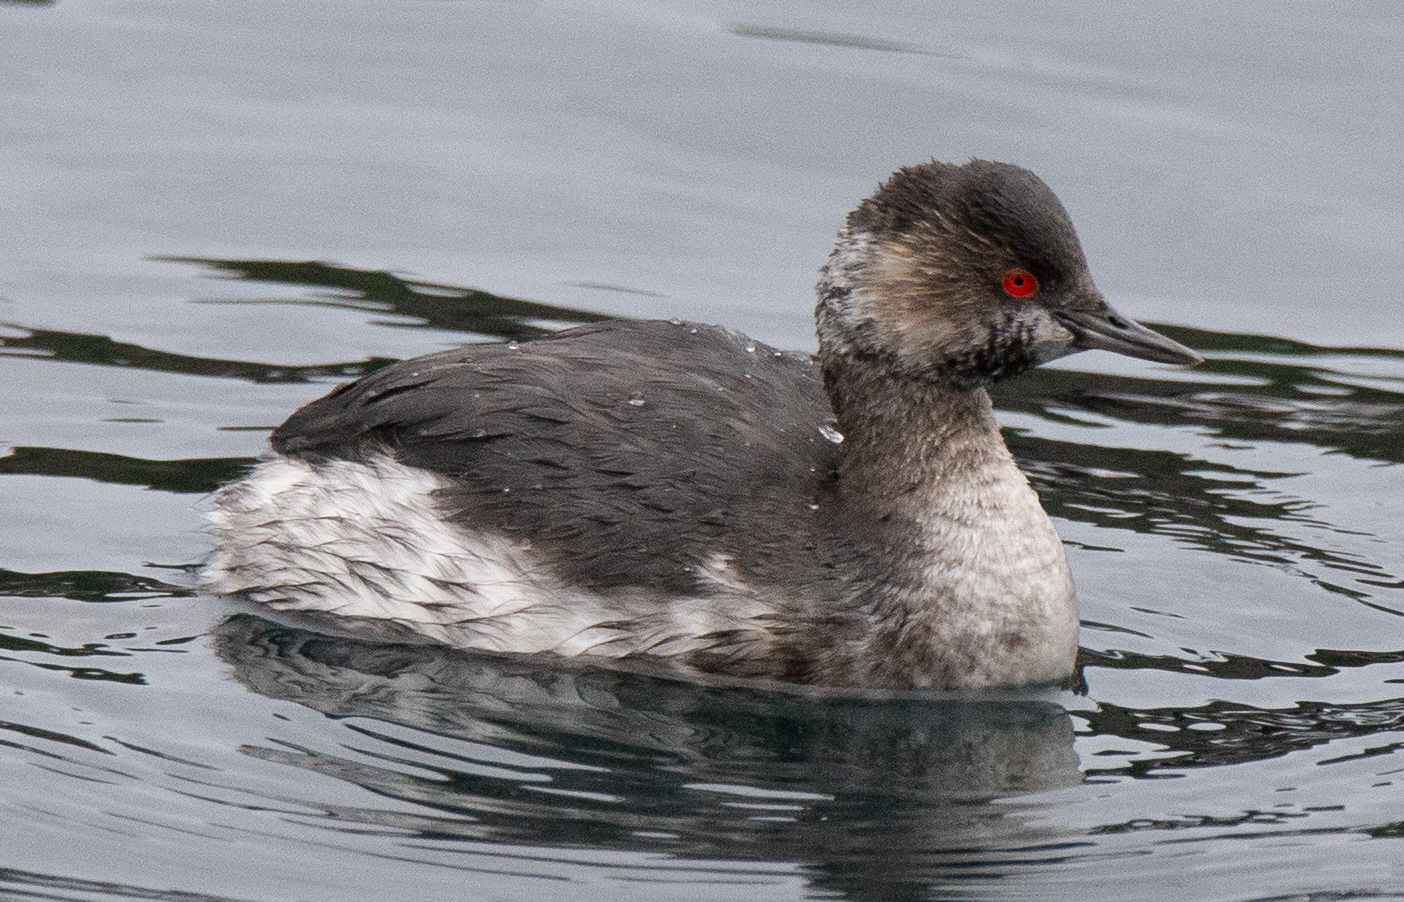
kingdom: Animalia
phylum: Chordata
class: Aves
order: Podicipediformes
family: Podicipedidae
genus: Podiceps
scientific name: Podiceps nigricollis
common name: Black-necked grebe
